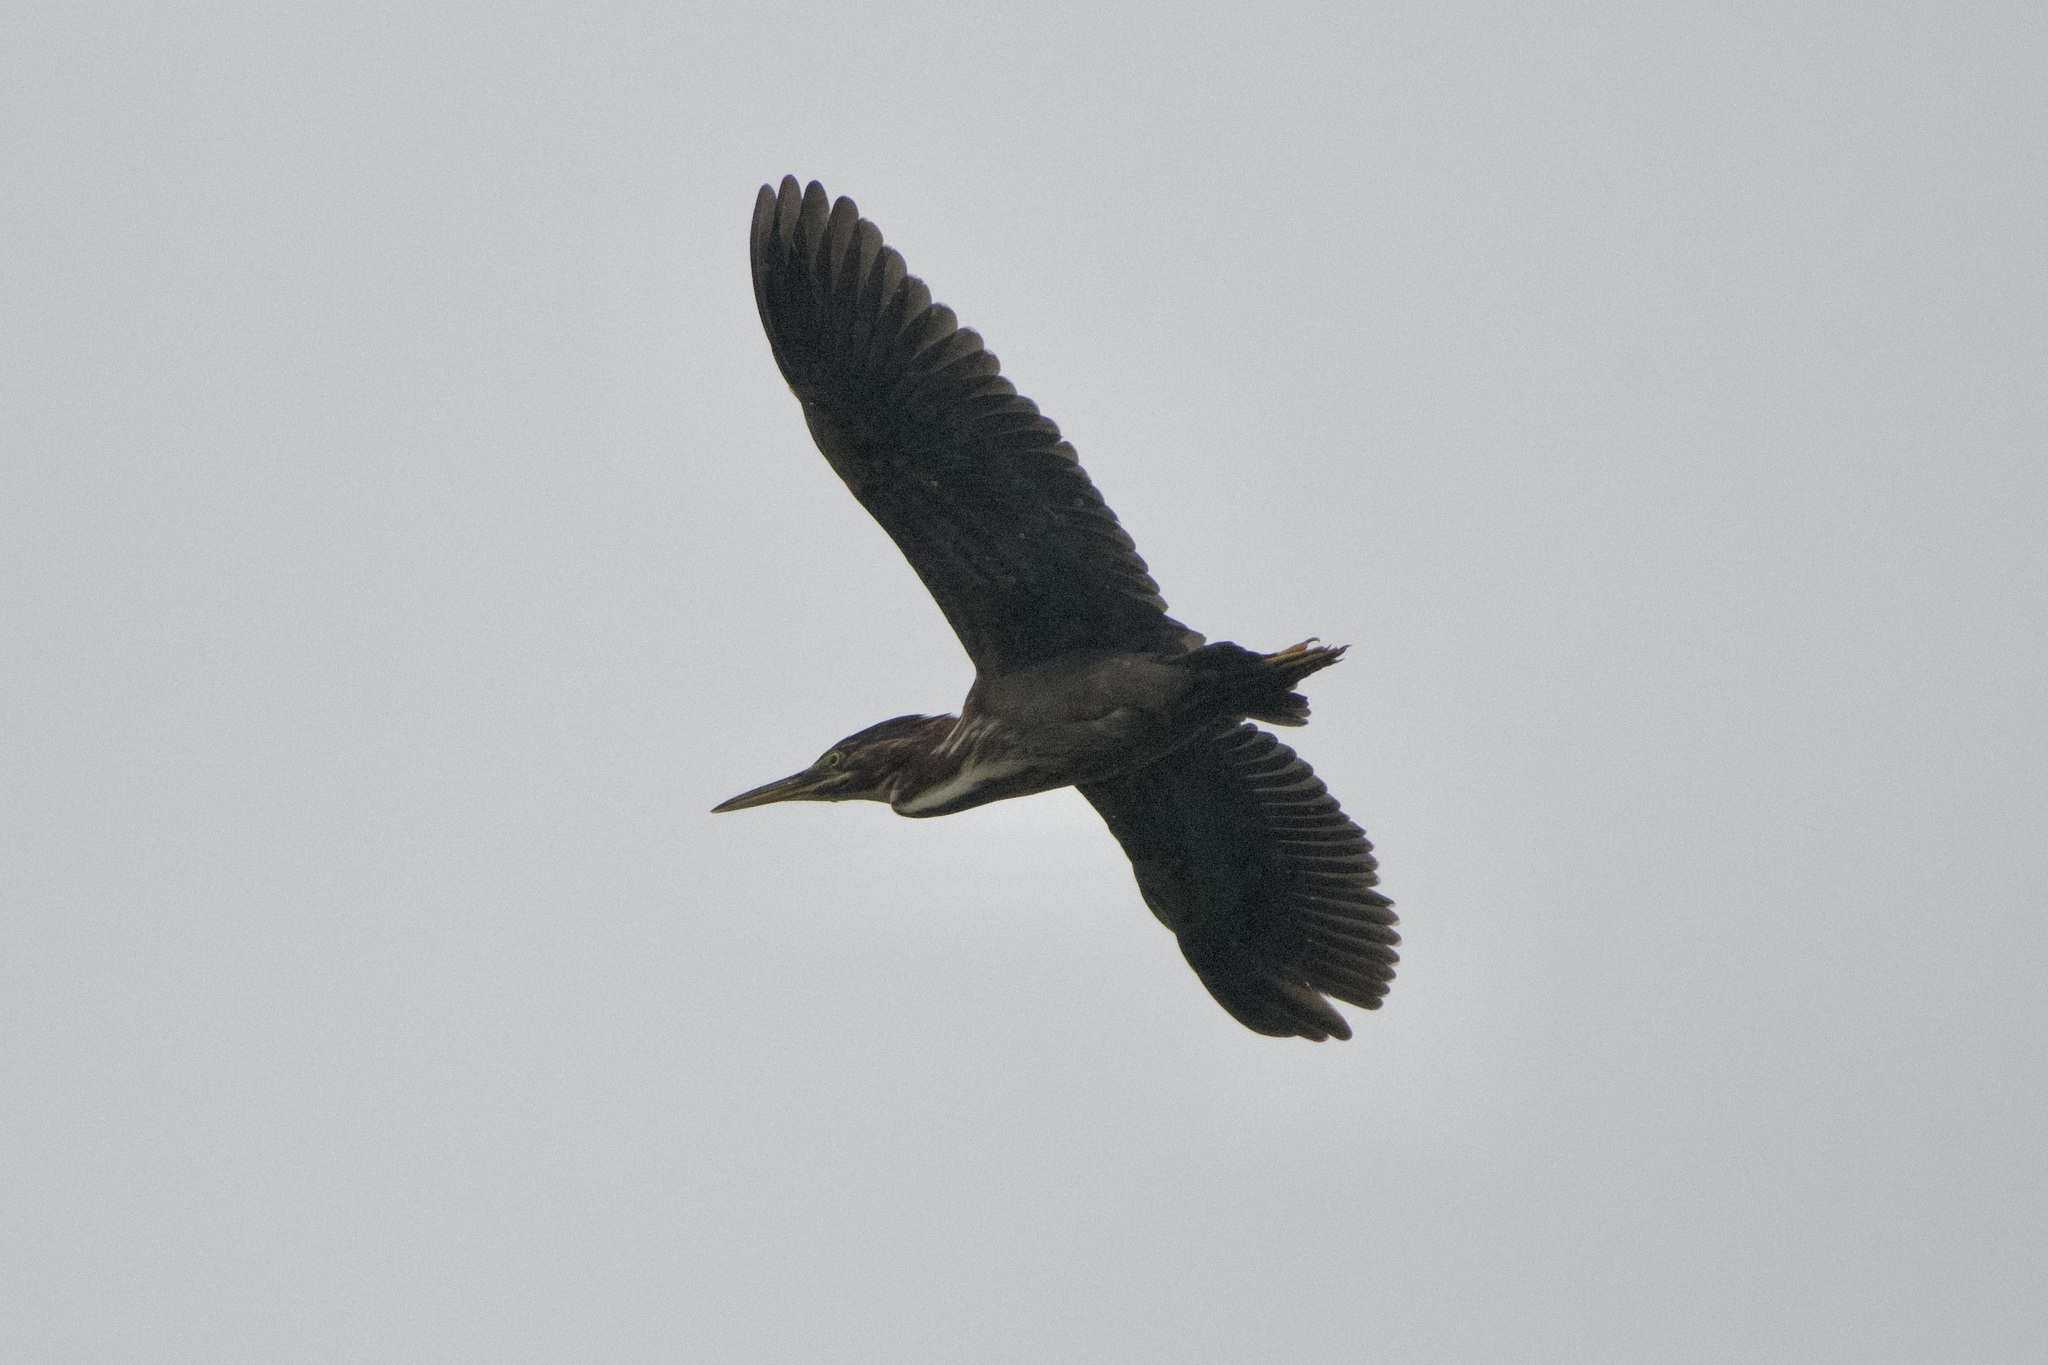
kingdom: Animalia
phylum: Chordata
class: Aves
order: Pelecaniformes
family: Ardeidae
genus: Butorides
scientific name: Butorides virescens
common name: Green heron
